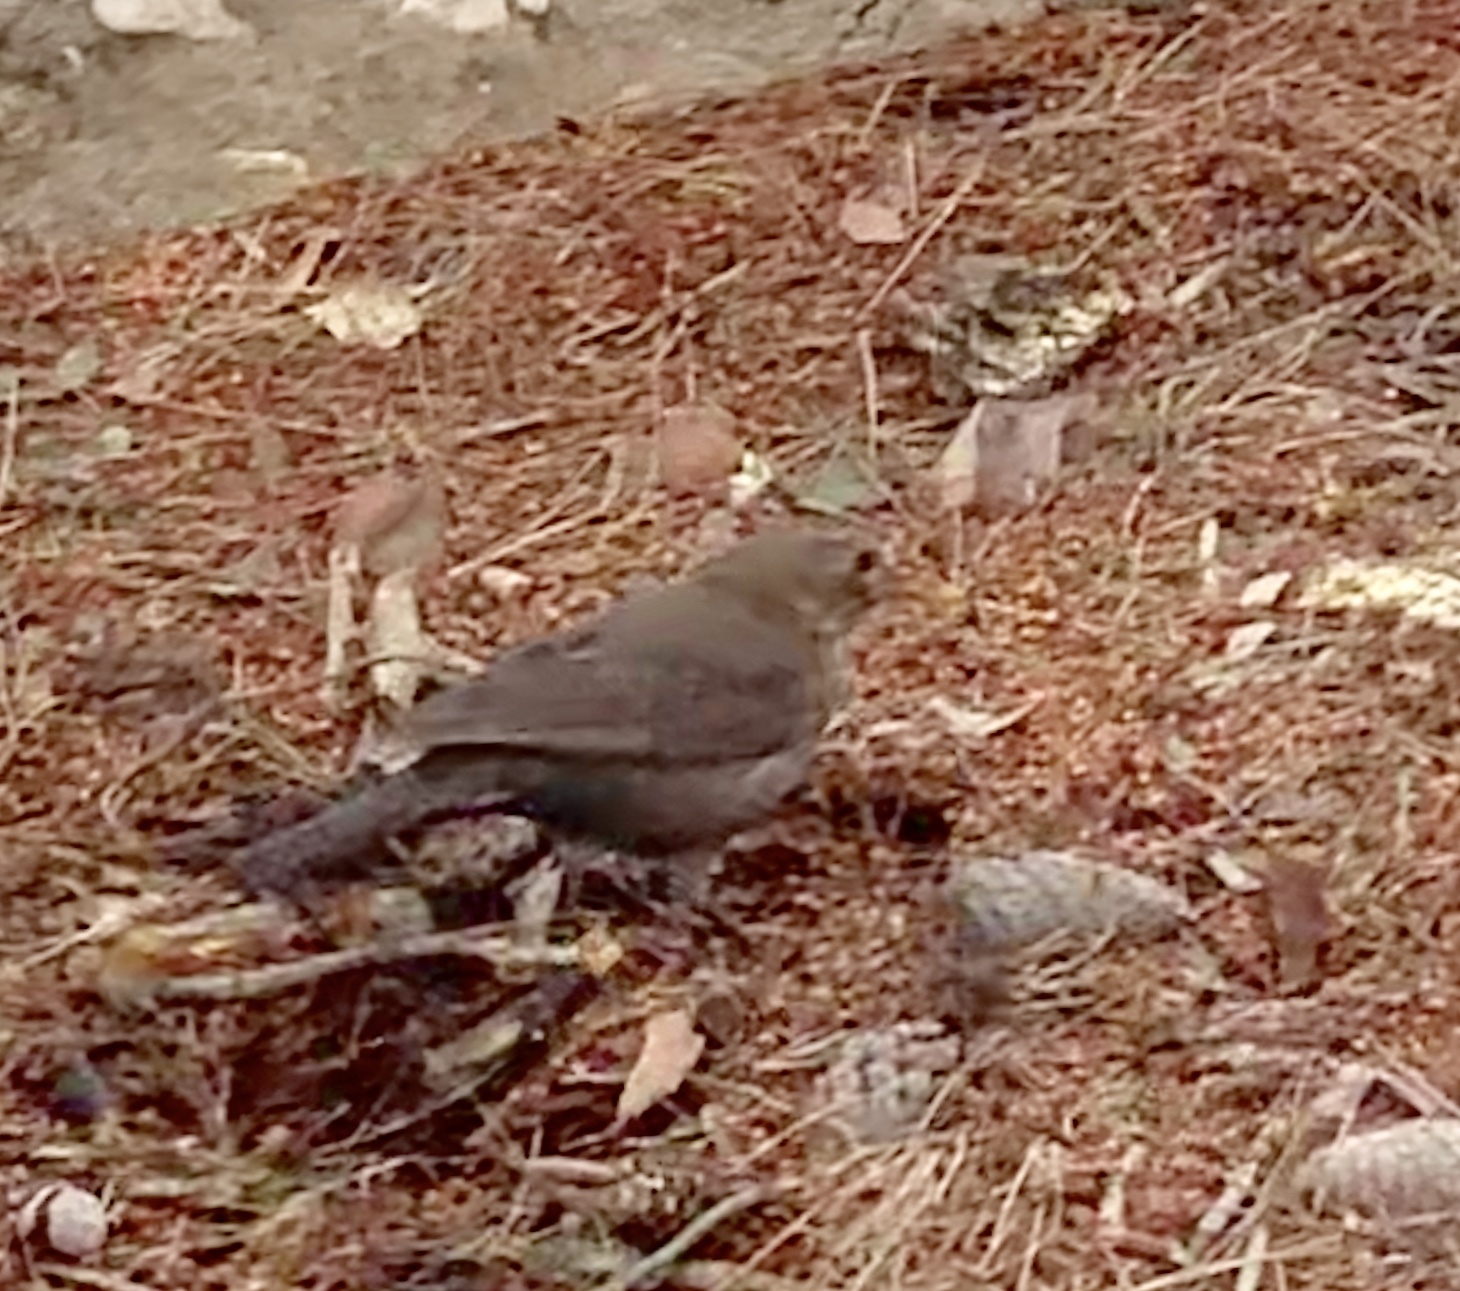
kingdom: Animalia
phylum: Chordata
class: Aves
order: Passeriformes
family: Turdidae
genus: Turdus
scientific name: Turdus merula
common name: Common blackbird
